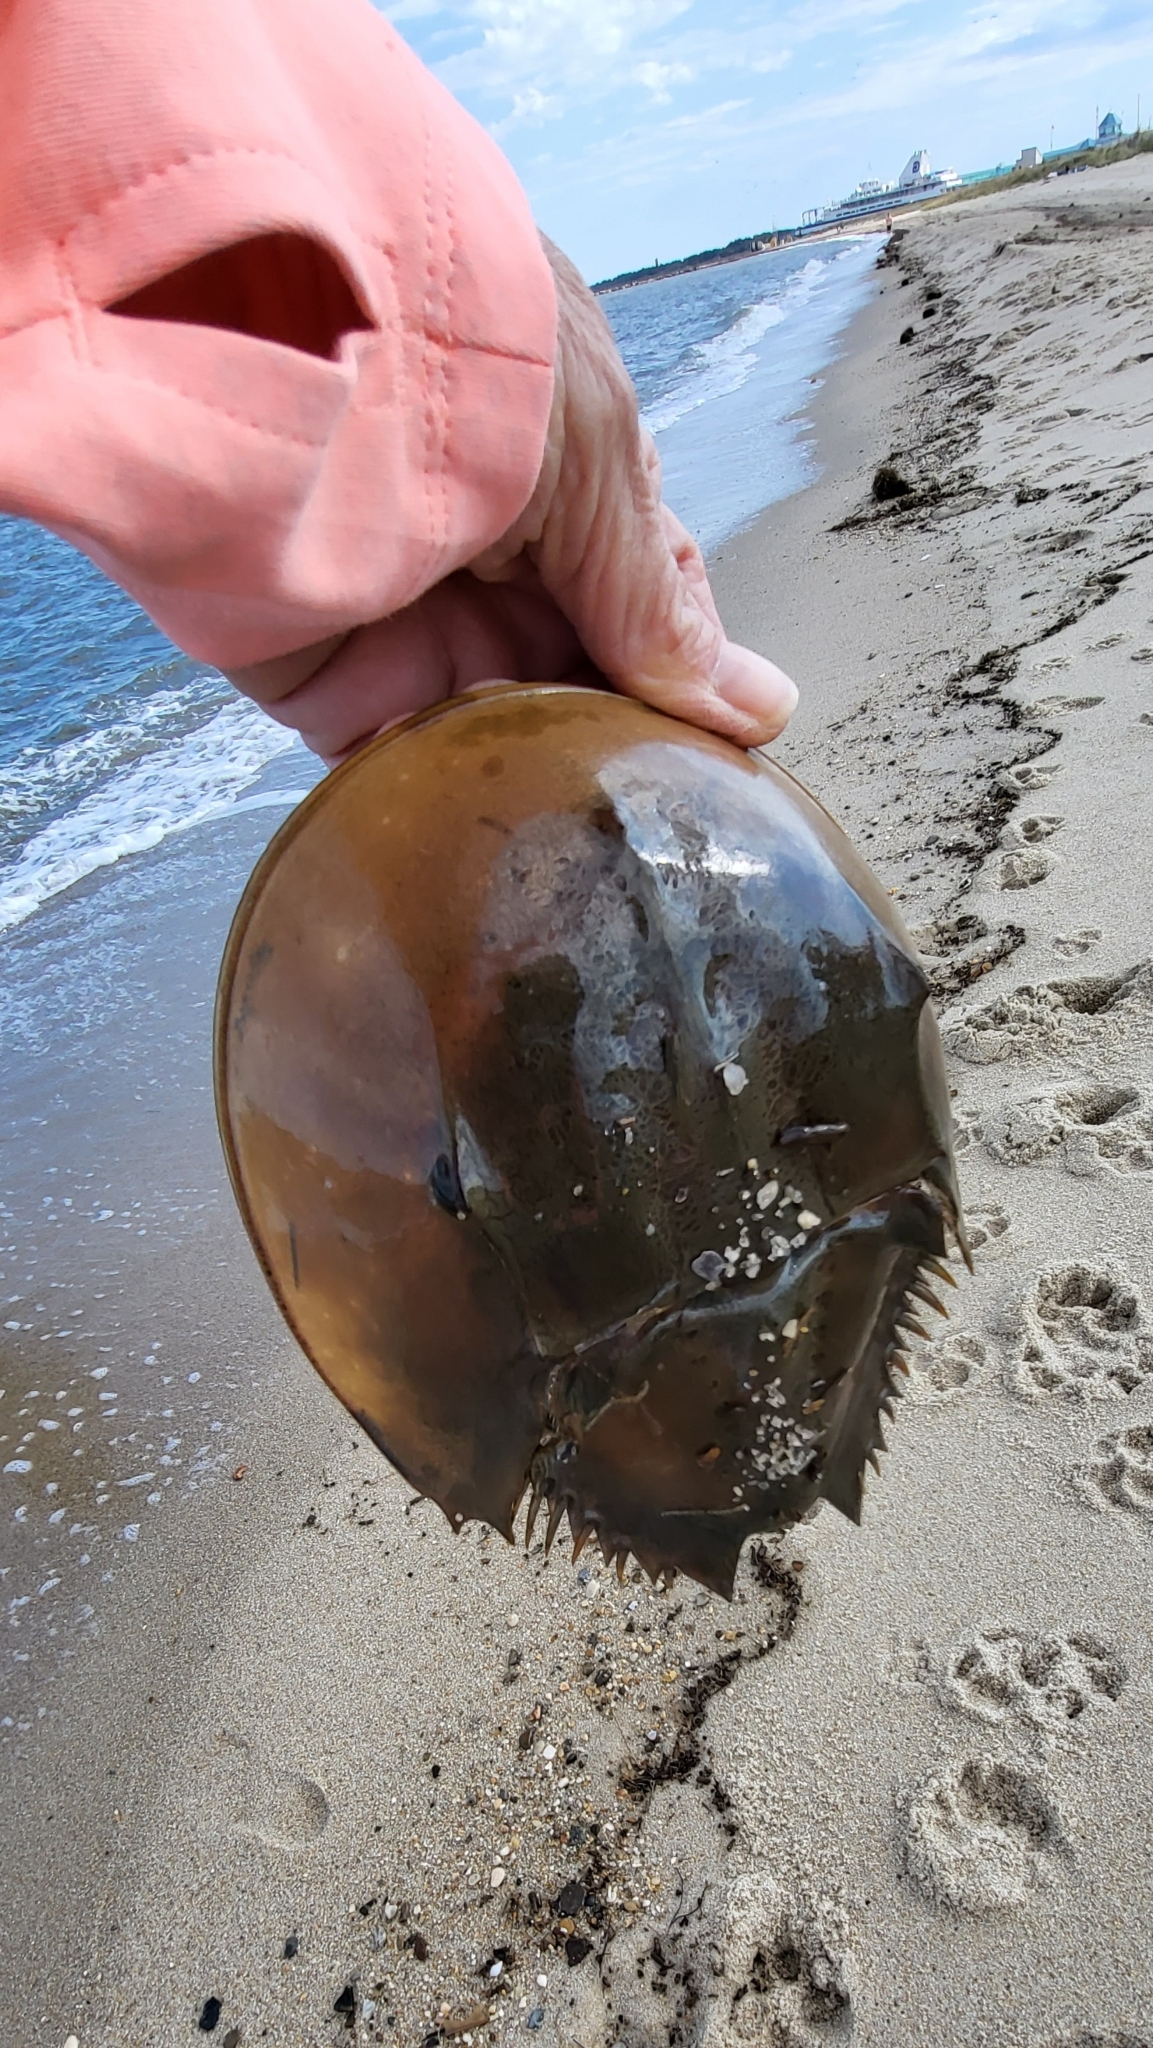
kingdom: Animalia
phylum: Arthropoda
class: Merostomata
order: Xiphosurida
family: Limulidae
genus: Limulus
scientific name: Limulus polyphemus
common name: Horseshoe crab
